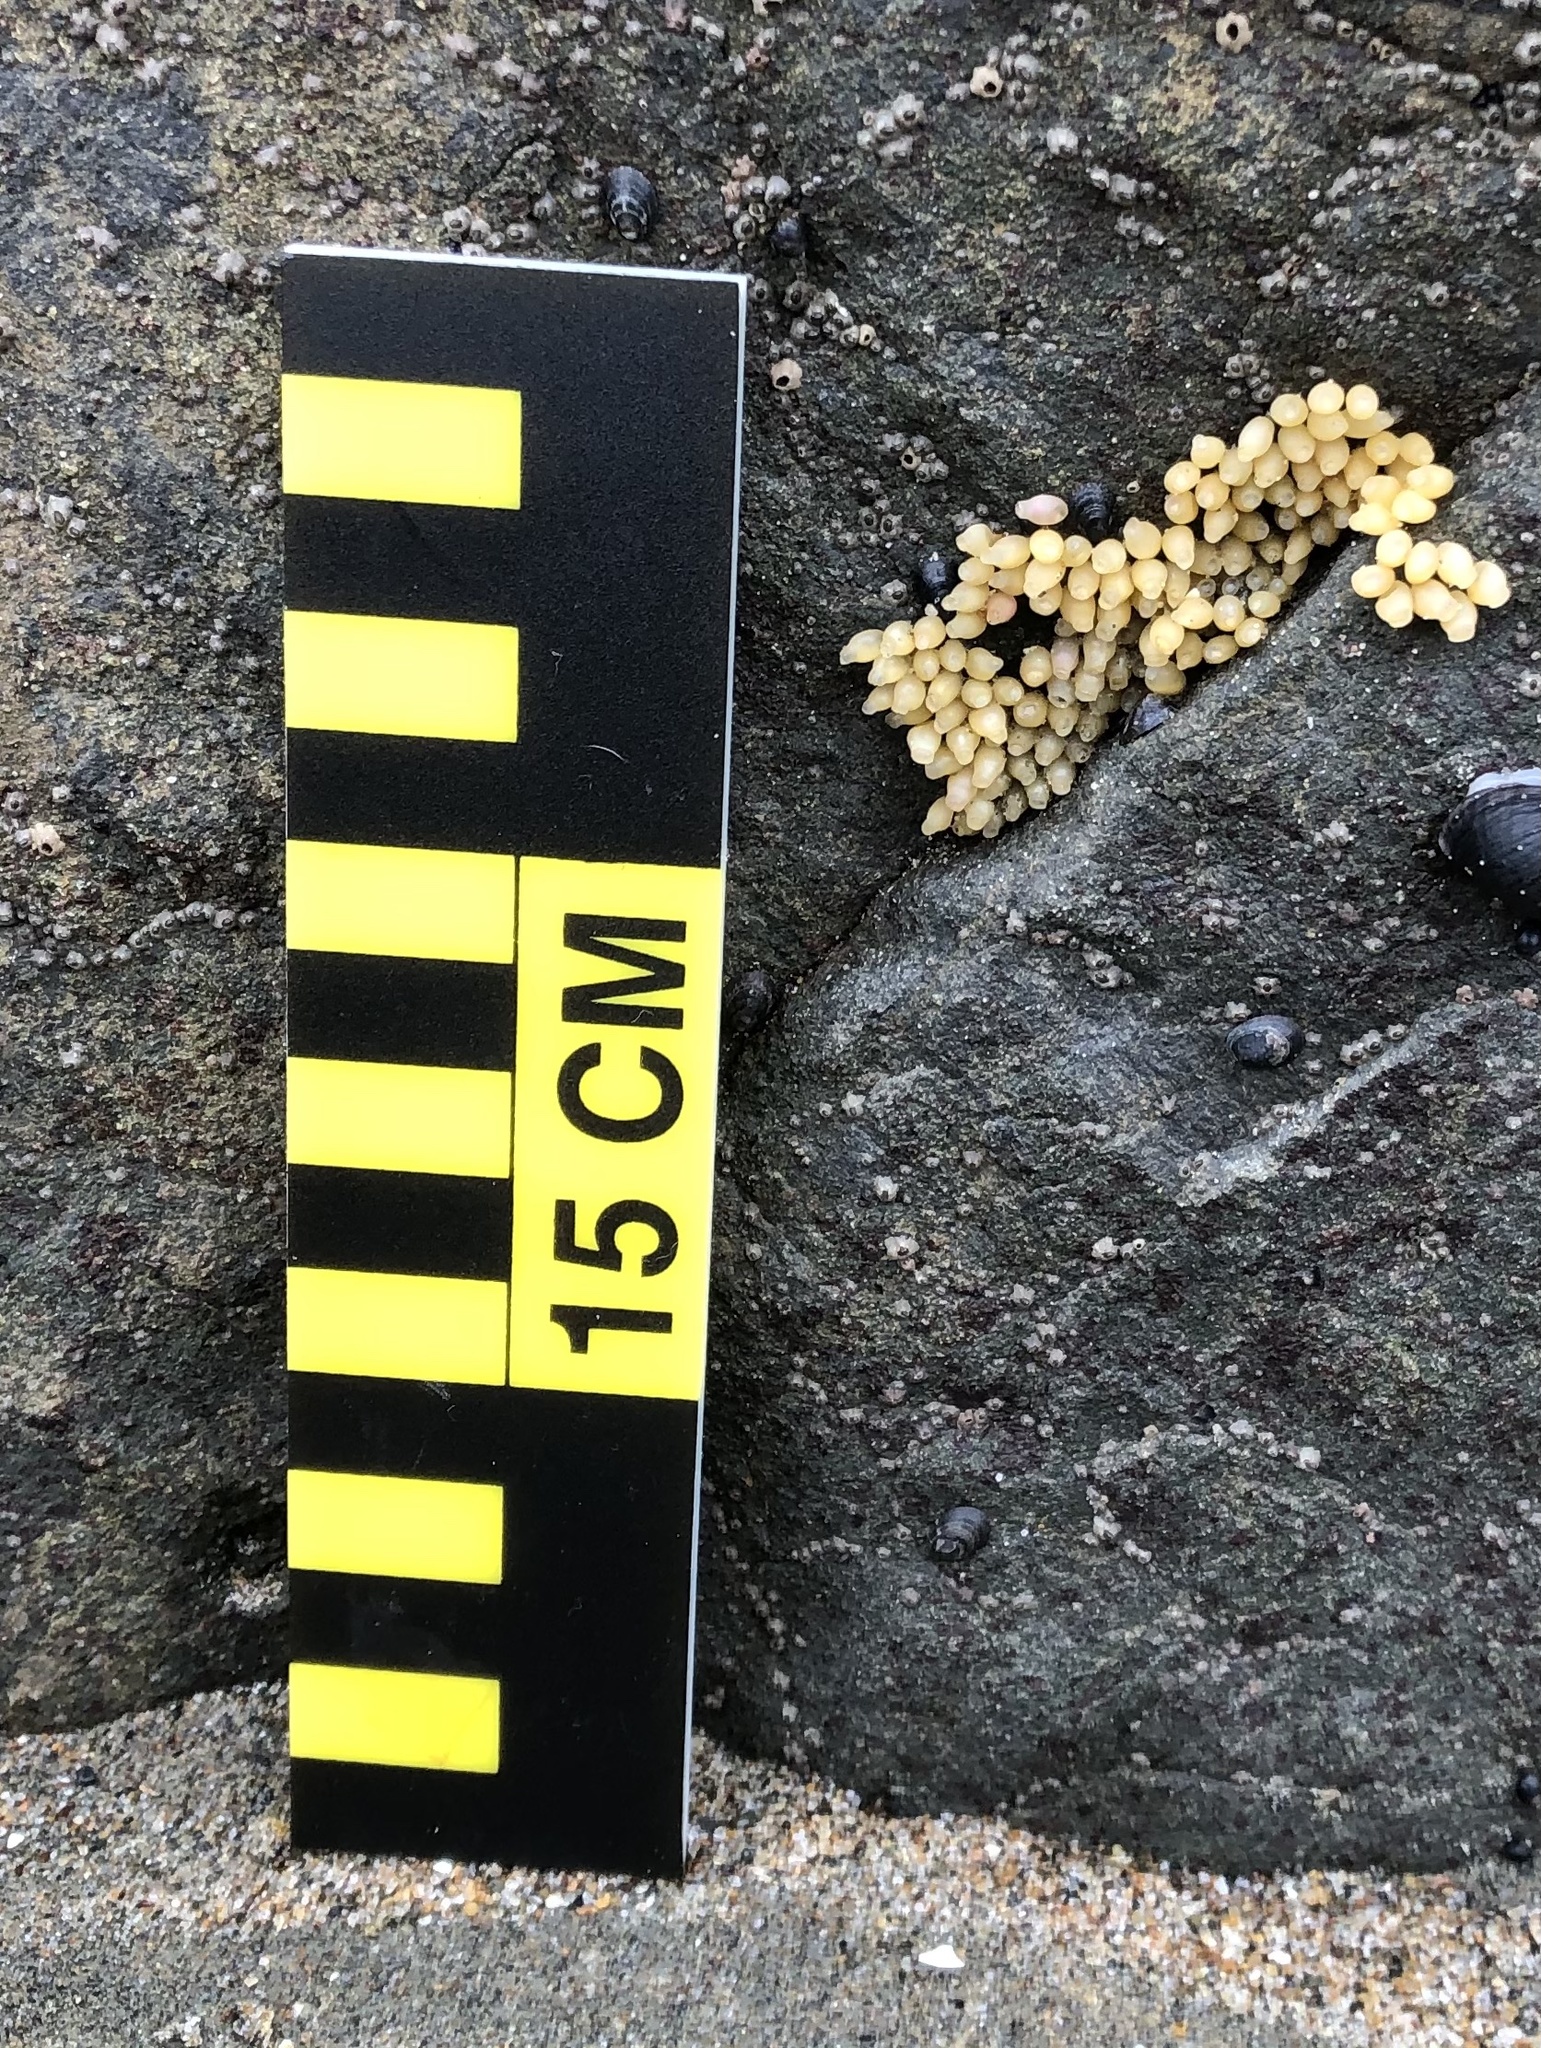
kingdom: Animalia
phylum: Mollusca
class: Gastropoda
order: Neogastropoda
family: Muricidae
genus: Nucella
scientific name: Nucella ostrina
